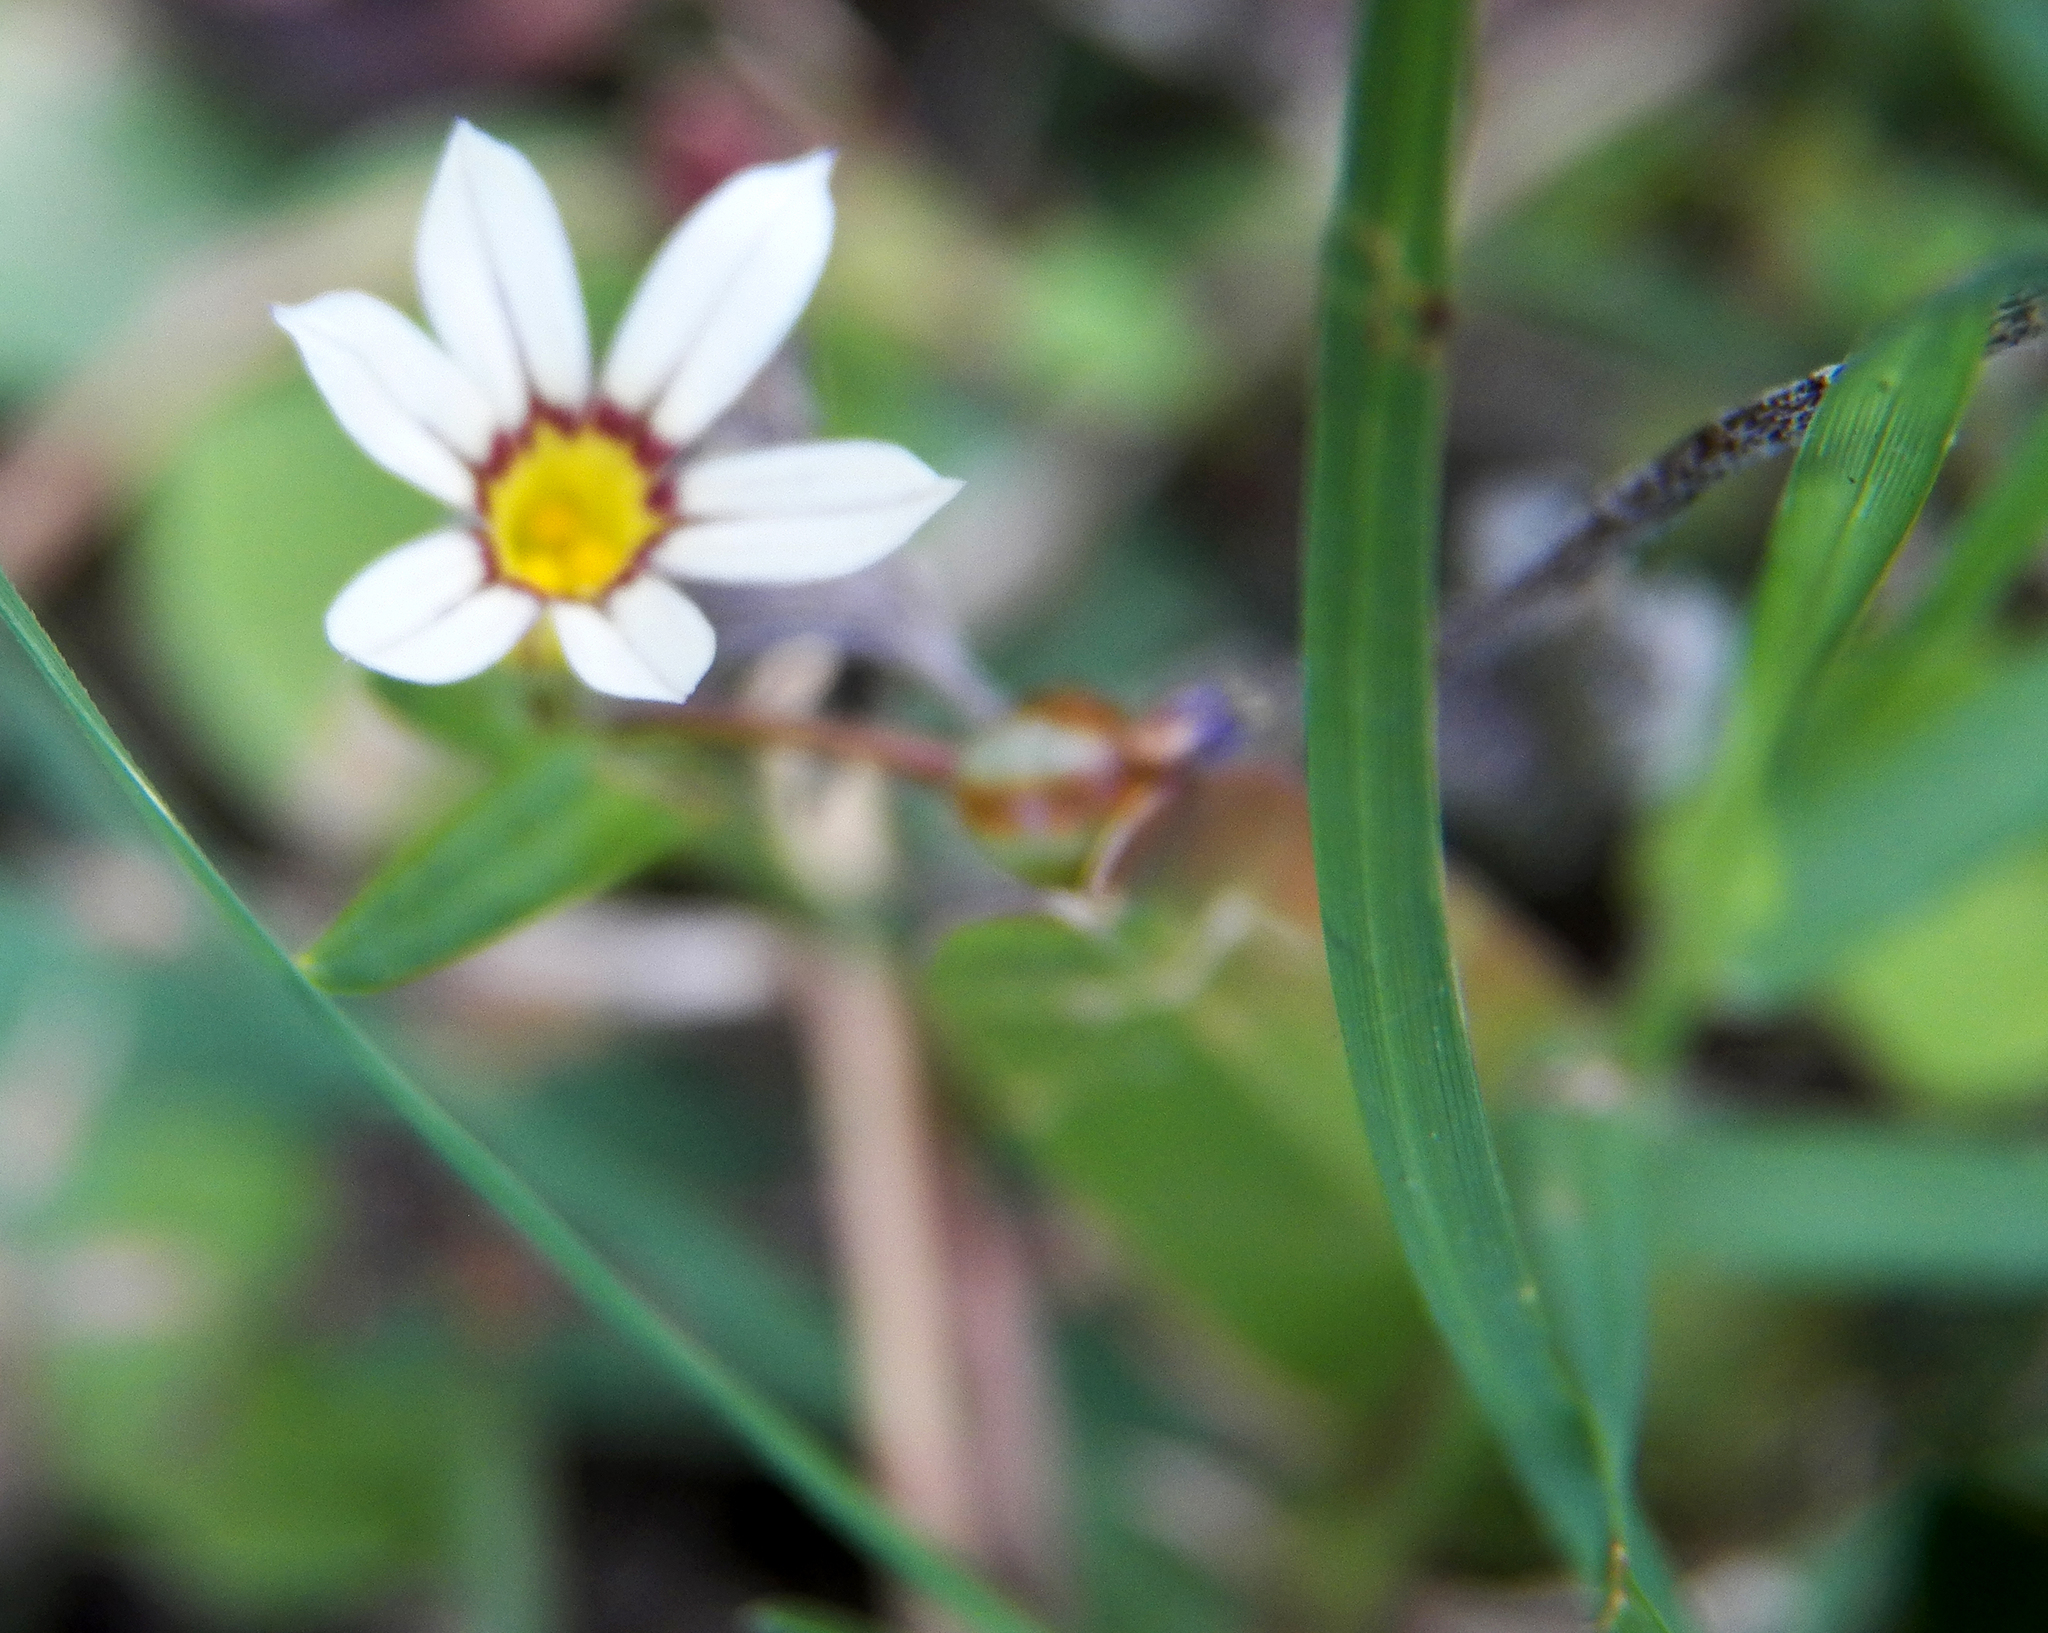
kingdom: Plantae
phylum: Tracheophyta
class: Liliopsida
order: Asparagales
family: Iridaceae
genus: Sisyrinchium
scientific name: Sisyrinchium micranthum
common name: Bermuda pigroot
